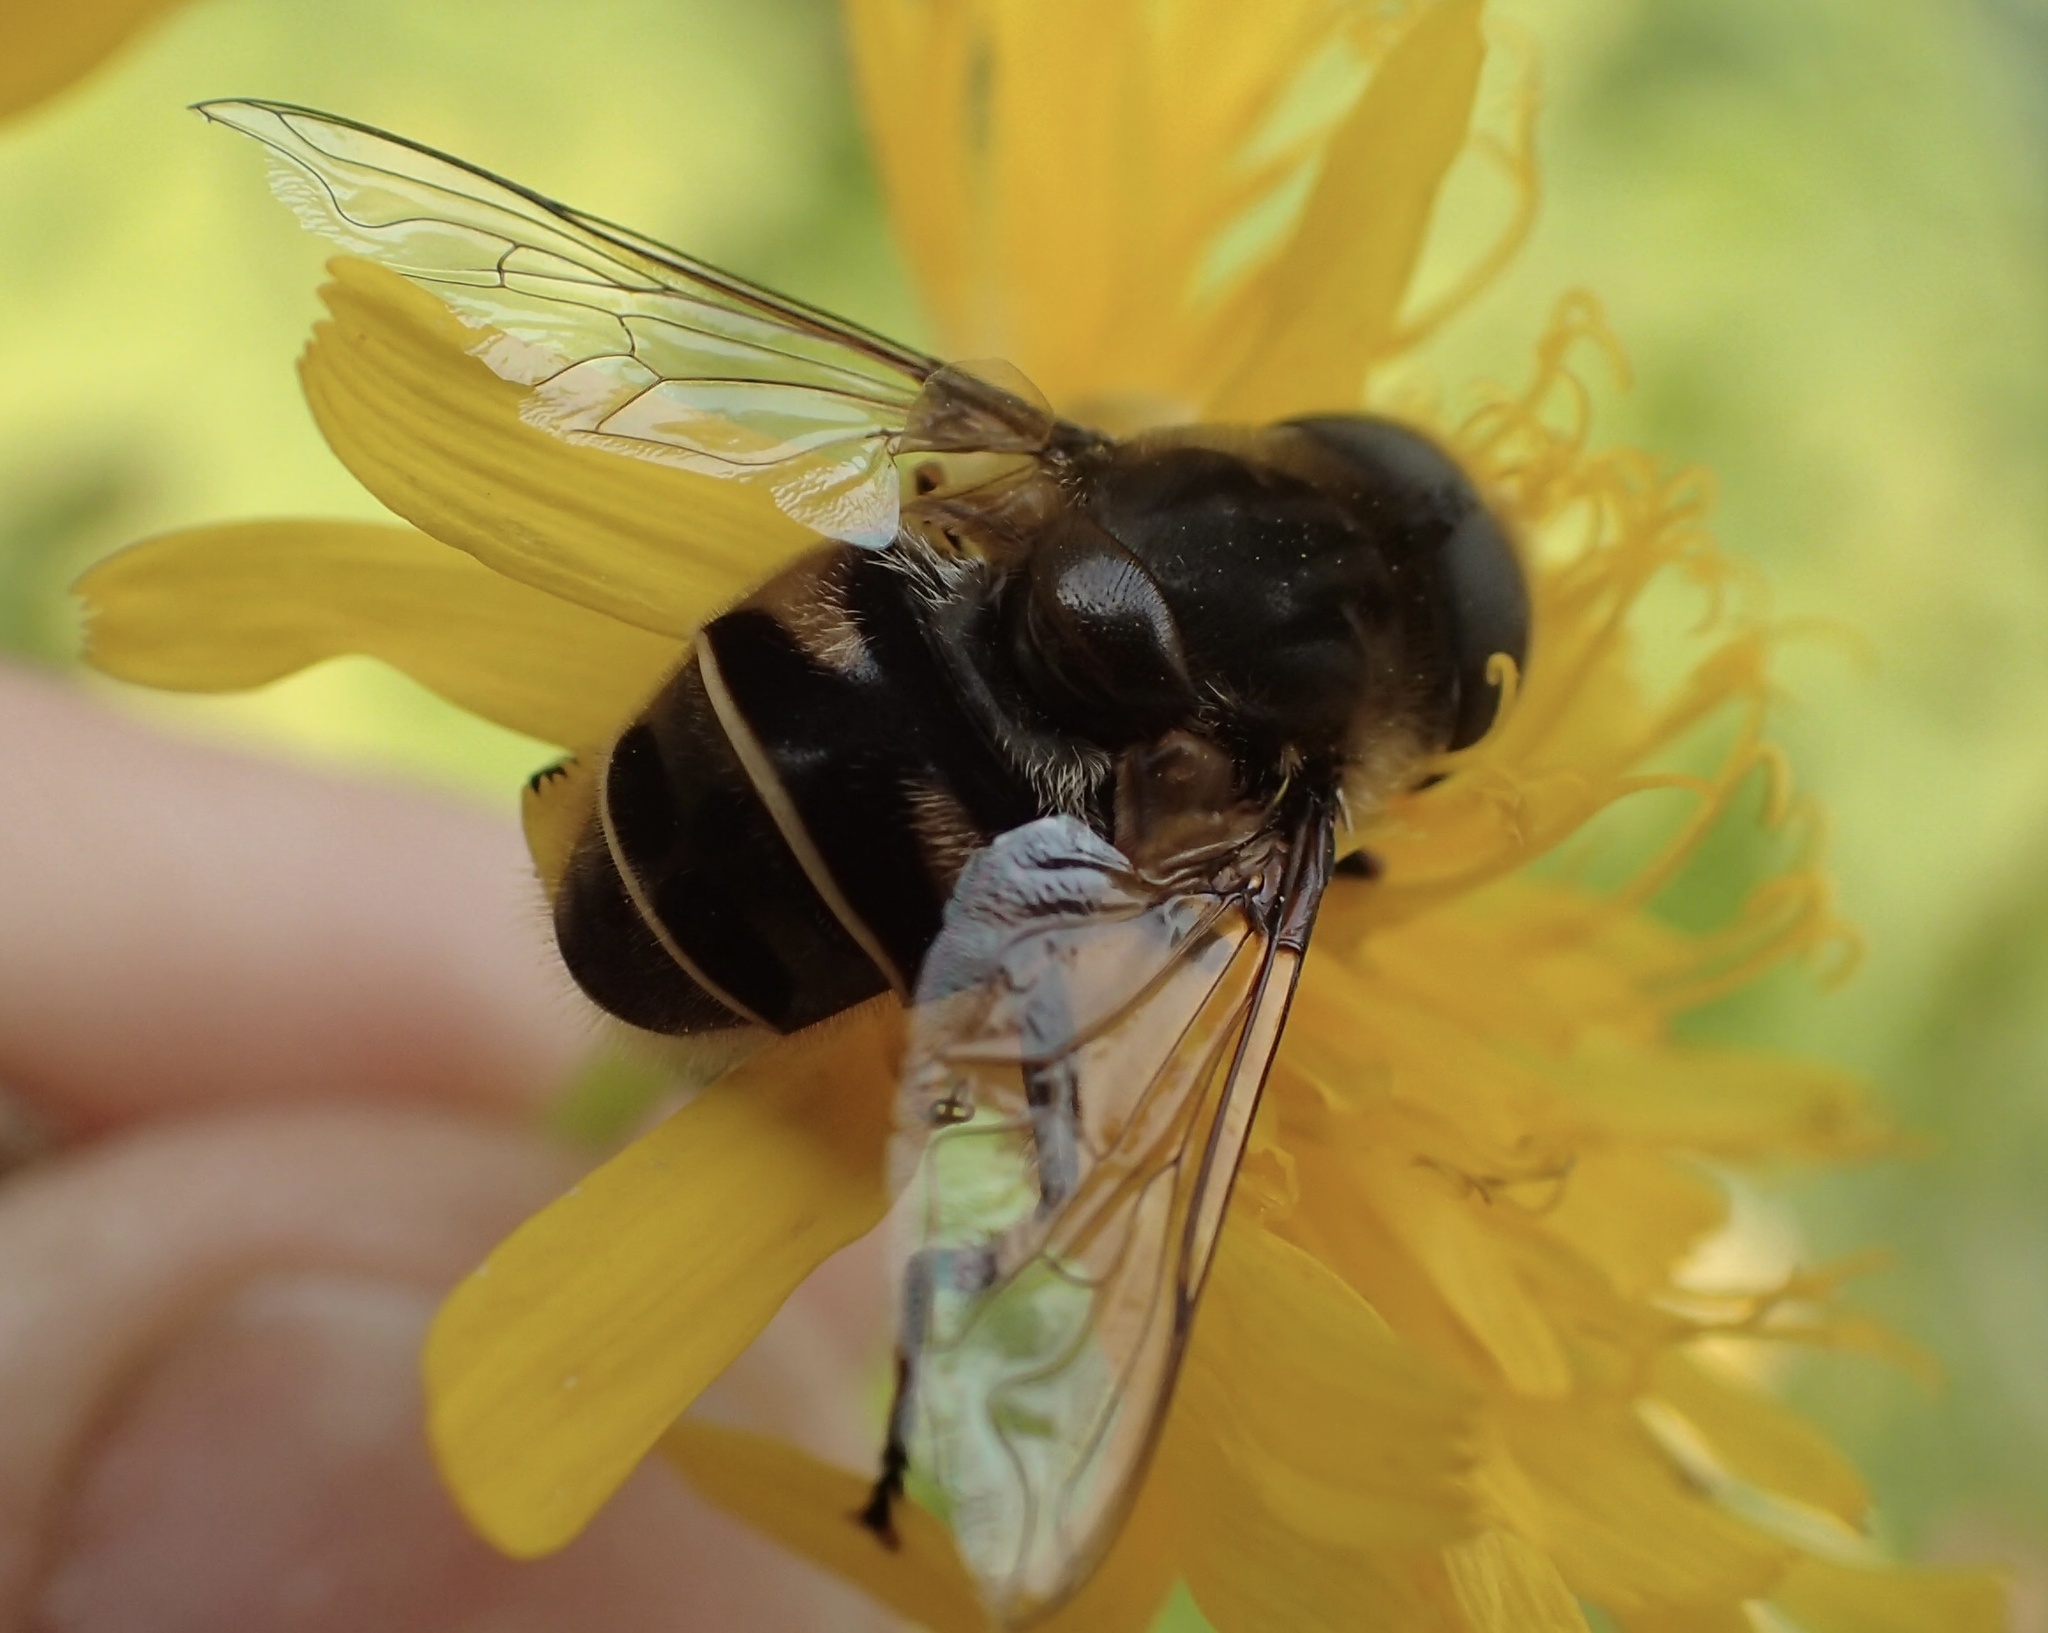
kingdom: Animalia
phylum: Arthropoda
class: Insecta
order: Diptera
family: Syrphidae
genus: Eristalis
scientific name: Eristalis dimidiata
